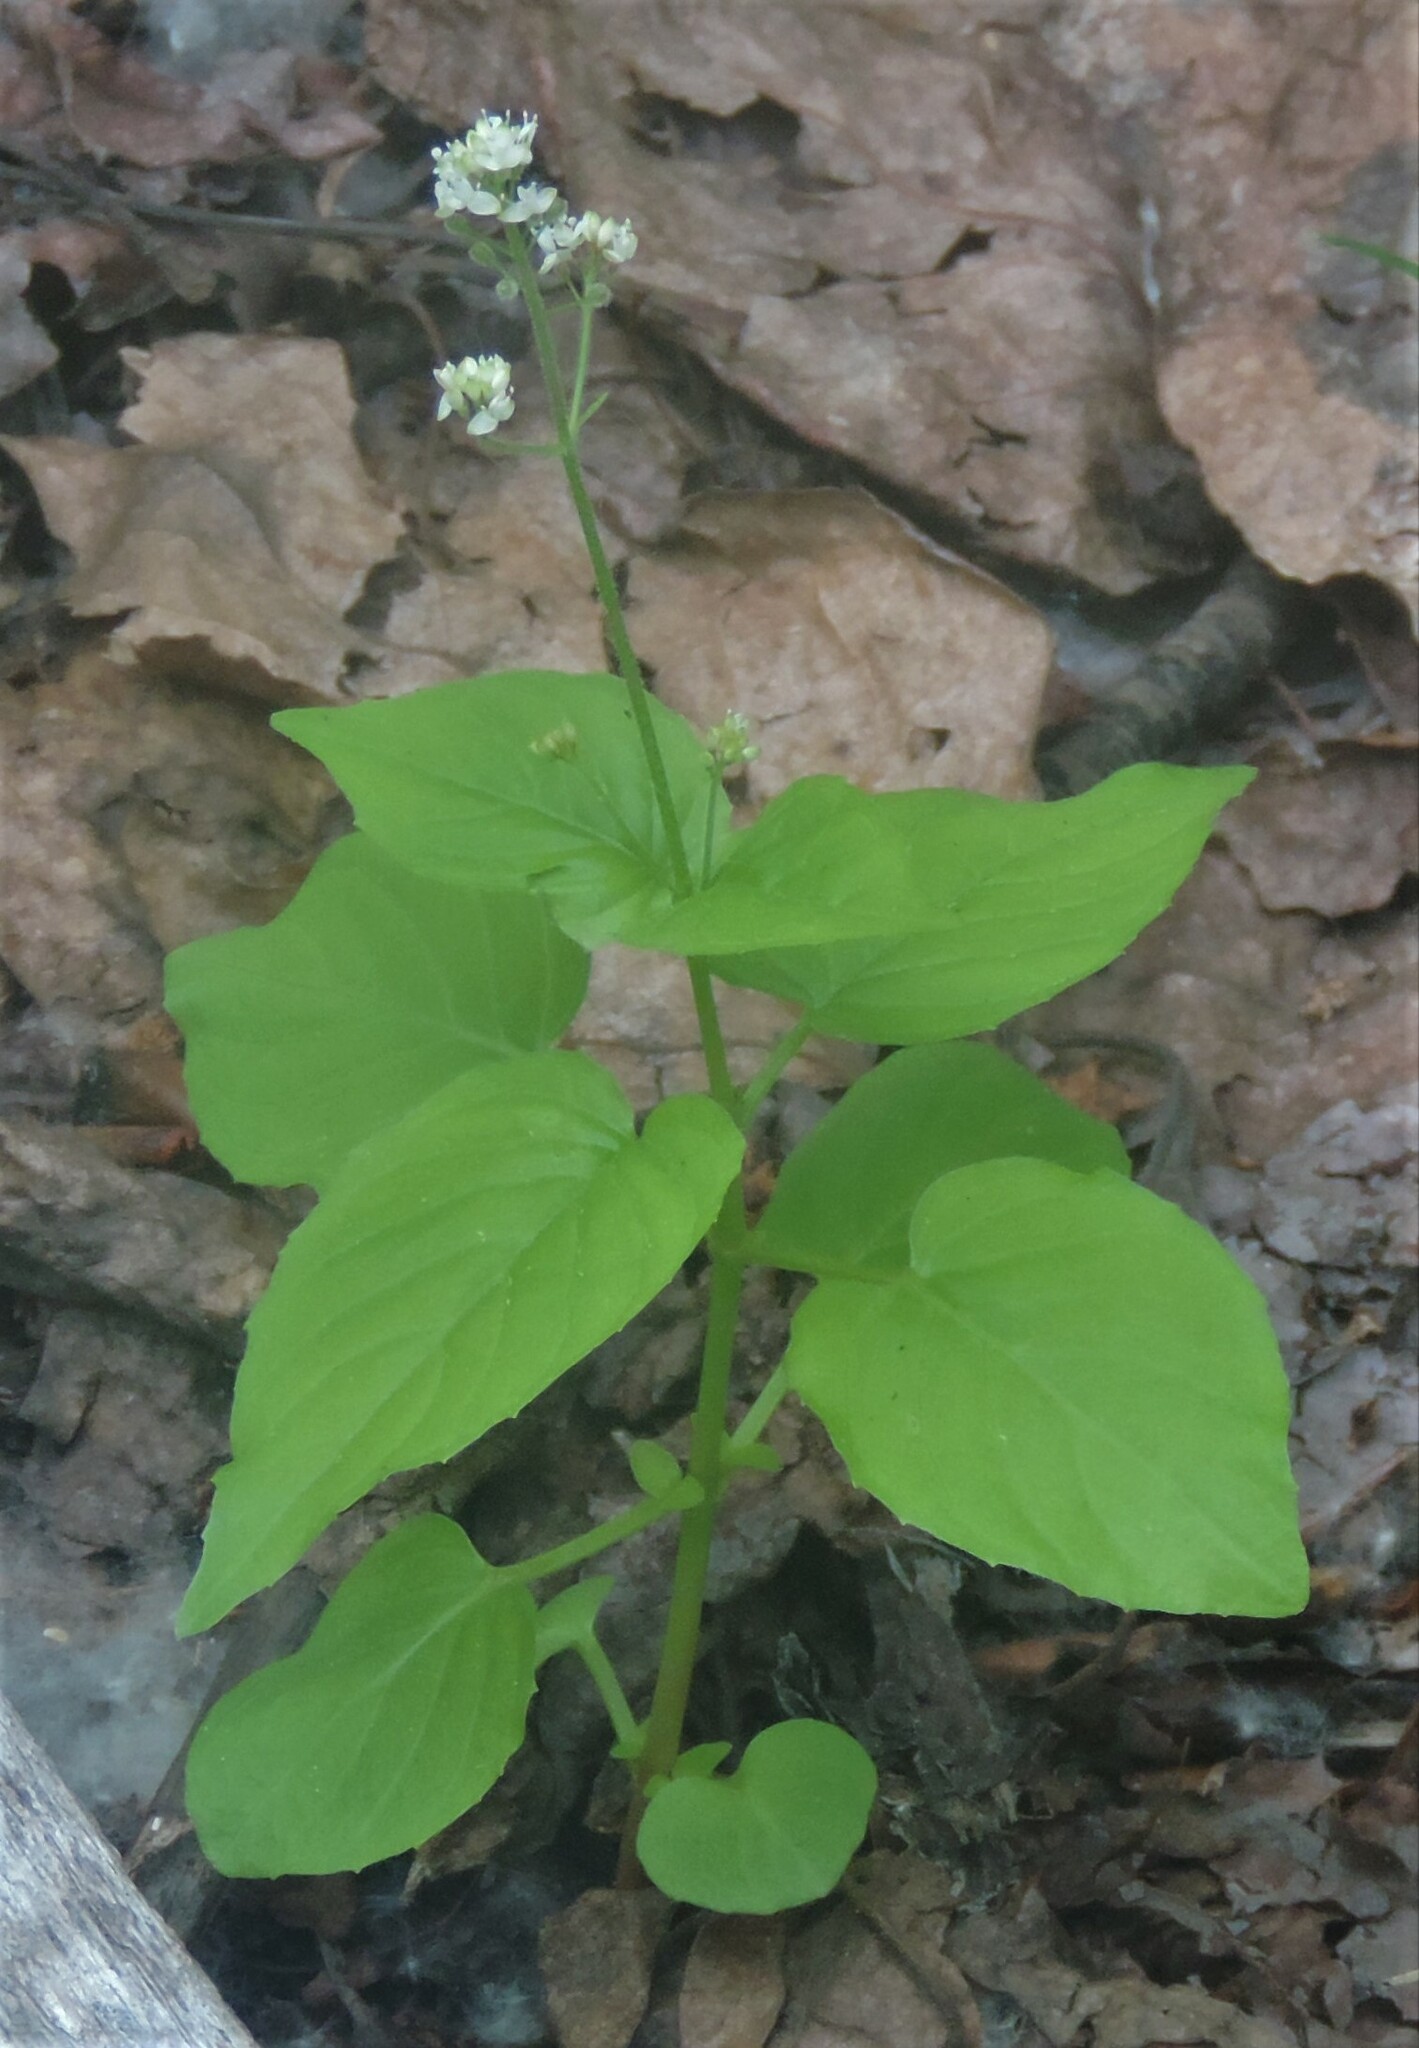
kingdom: Plantae
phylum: Tracheophyta
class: Magnoliopsida
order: Myrtales
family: Onagraceae
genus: Circaea
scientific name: Circaea alpina
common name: Alpine enchanter's-nightshade
